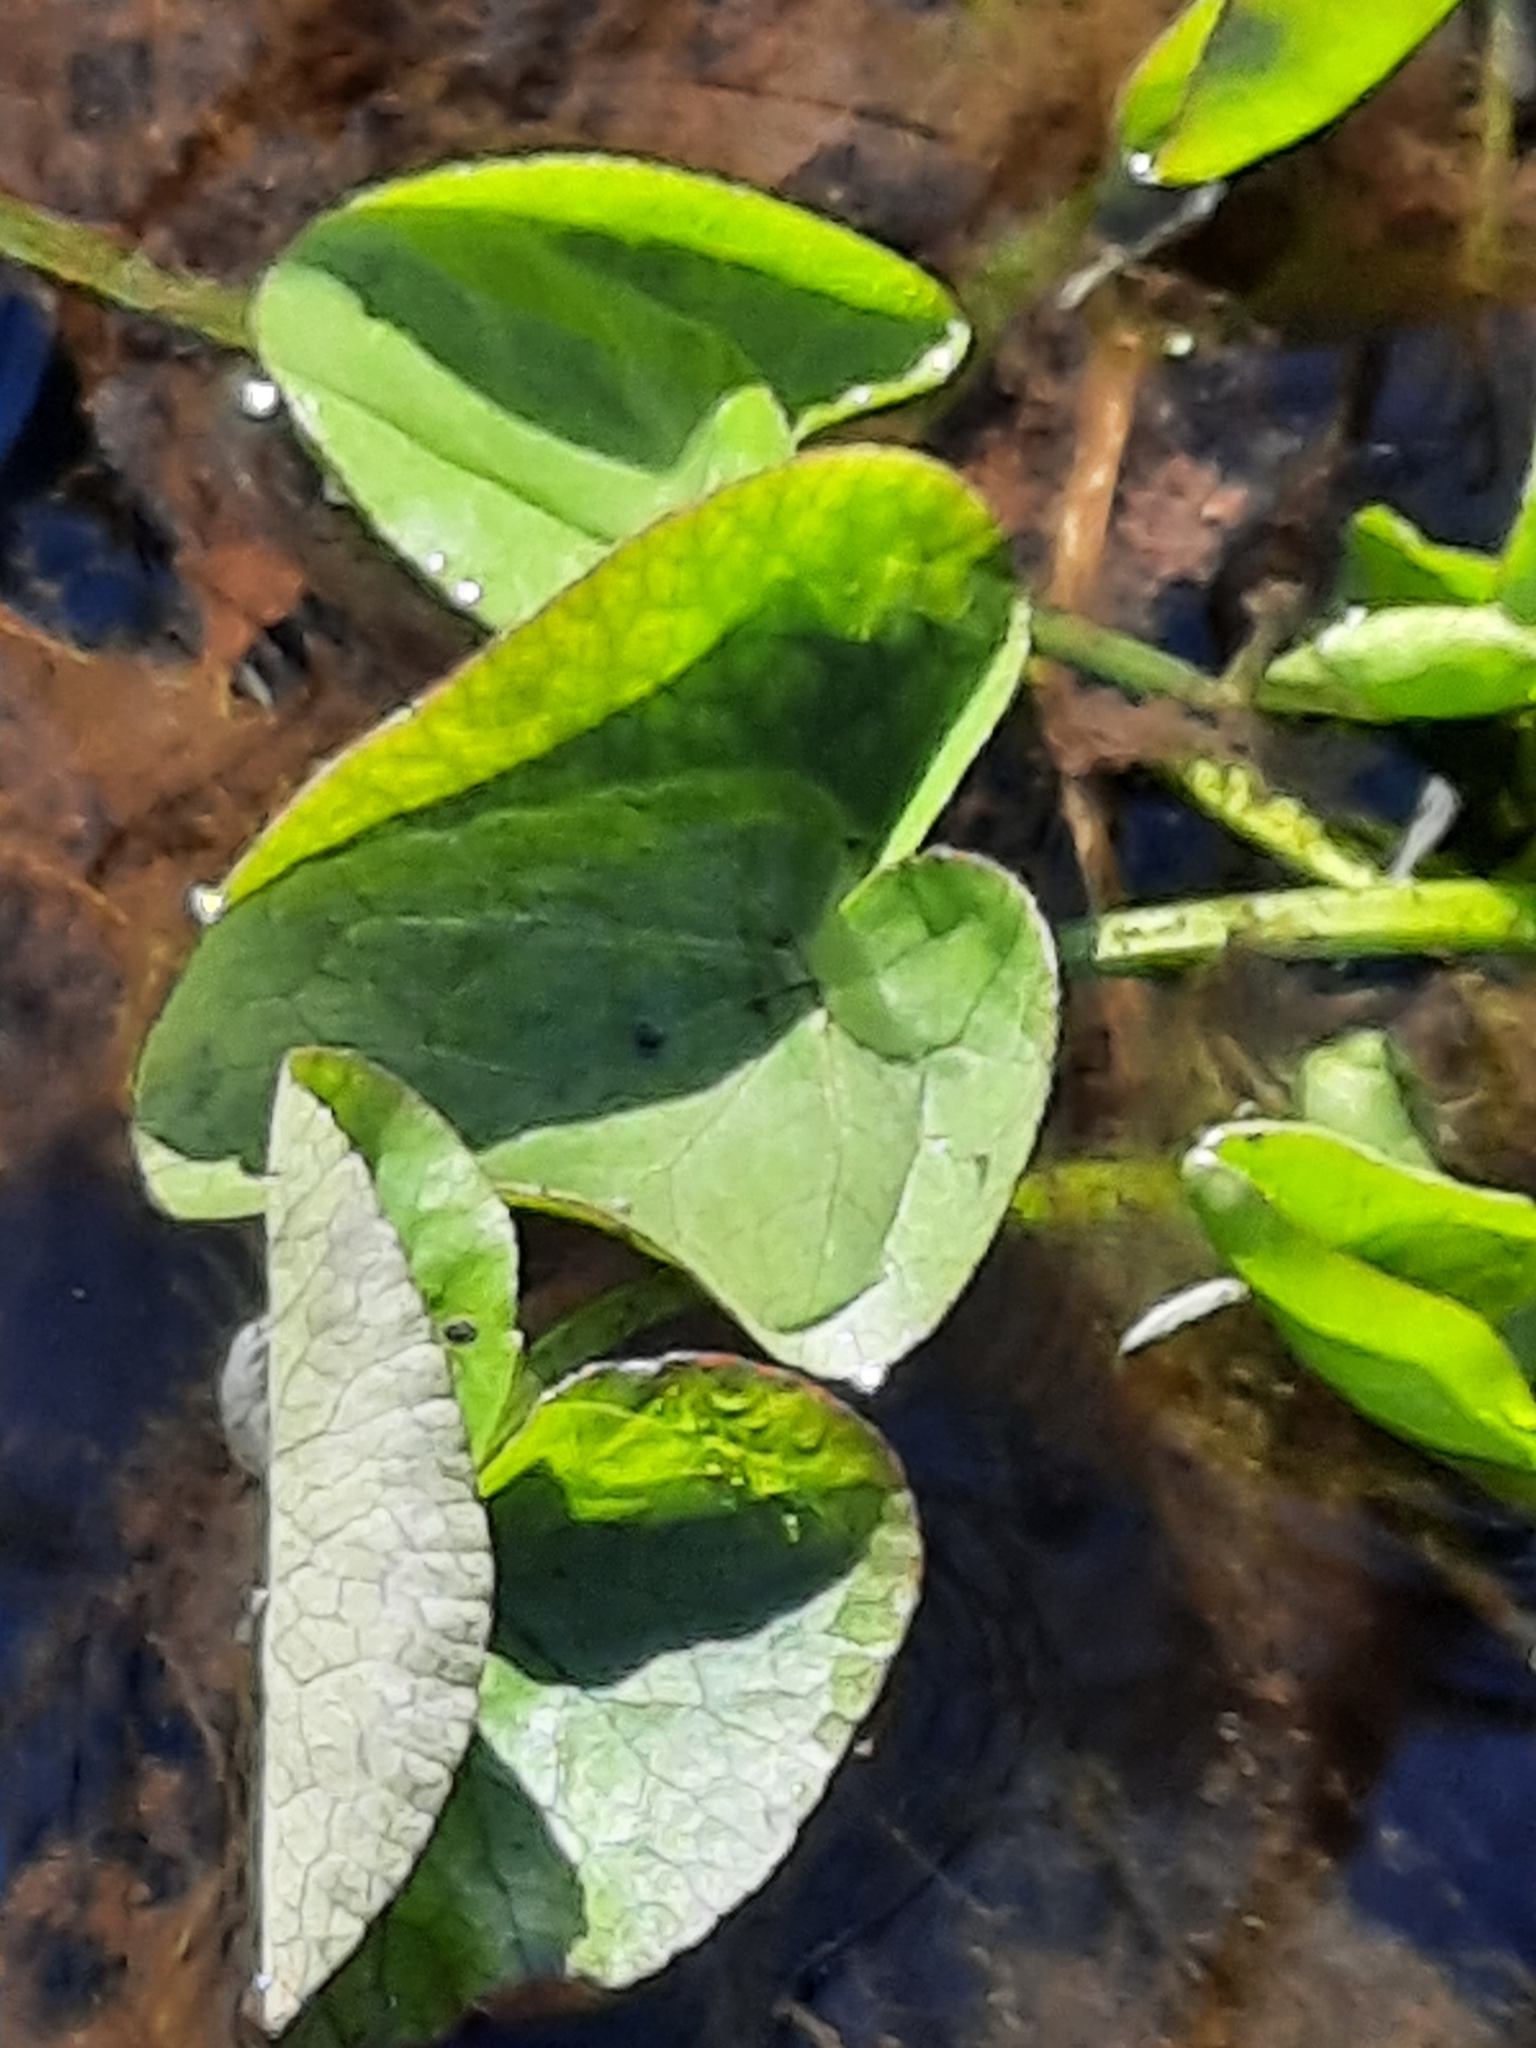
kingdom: Plantae
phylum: Tracheophyta
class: Magnoliopsida
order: Ranunculales
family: Ranunculaceae
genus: Caltha
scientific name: Caltha palustris
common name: Marsh marigold
